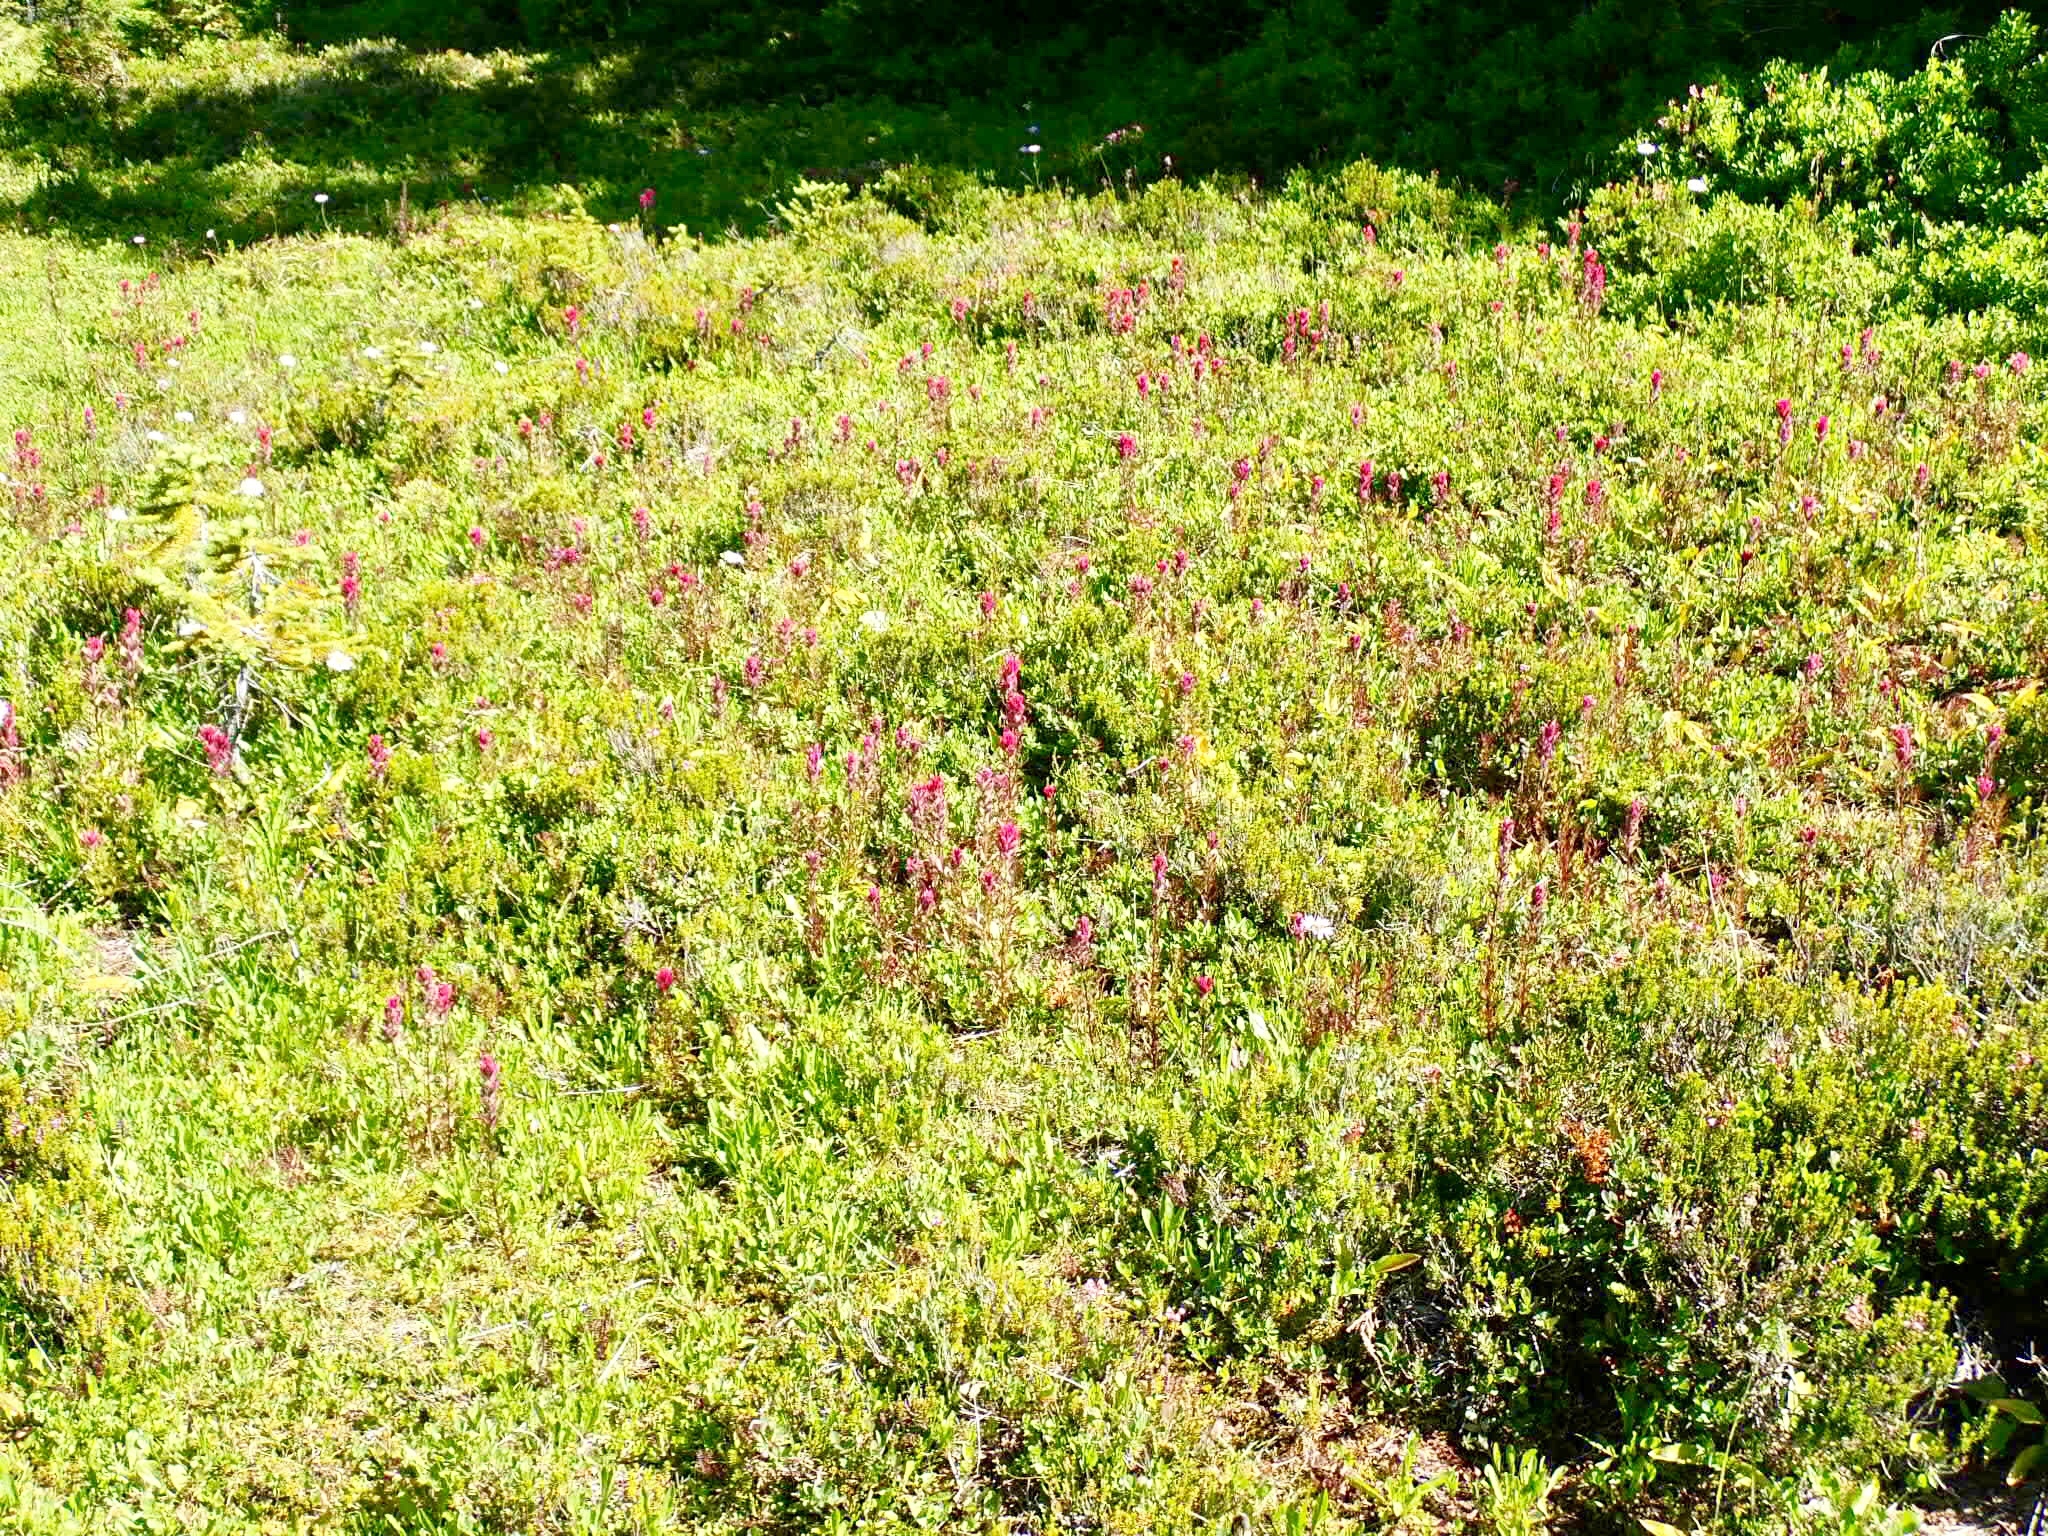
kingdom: Plantae
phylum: Tracheophyta
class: Magnoliopsida
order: Lamiales
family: Orobanchaceae
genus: Castilleja
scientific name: Castilleja parviflora
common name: Mountain paintbrush
